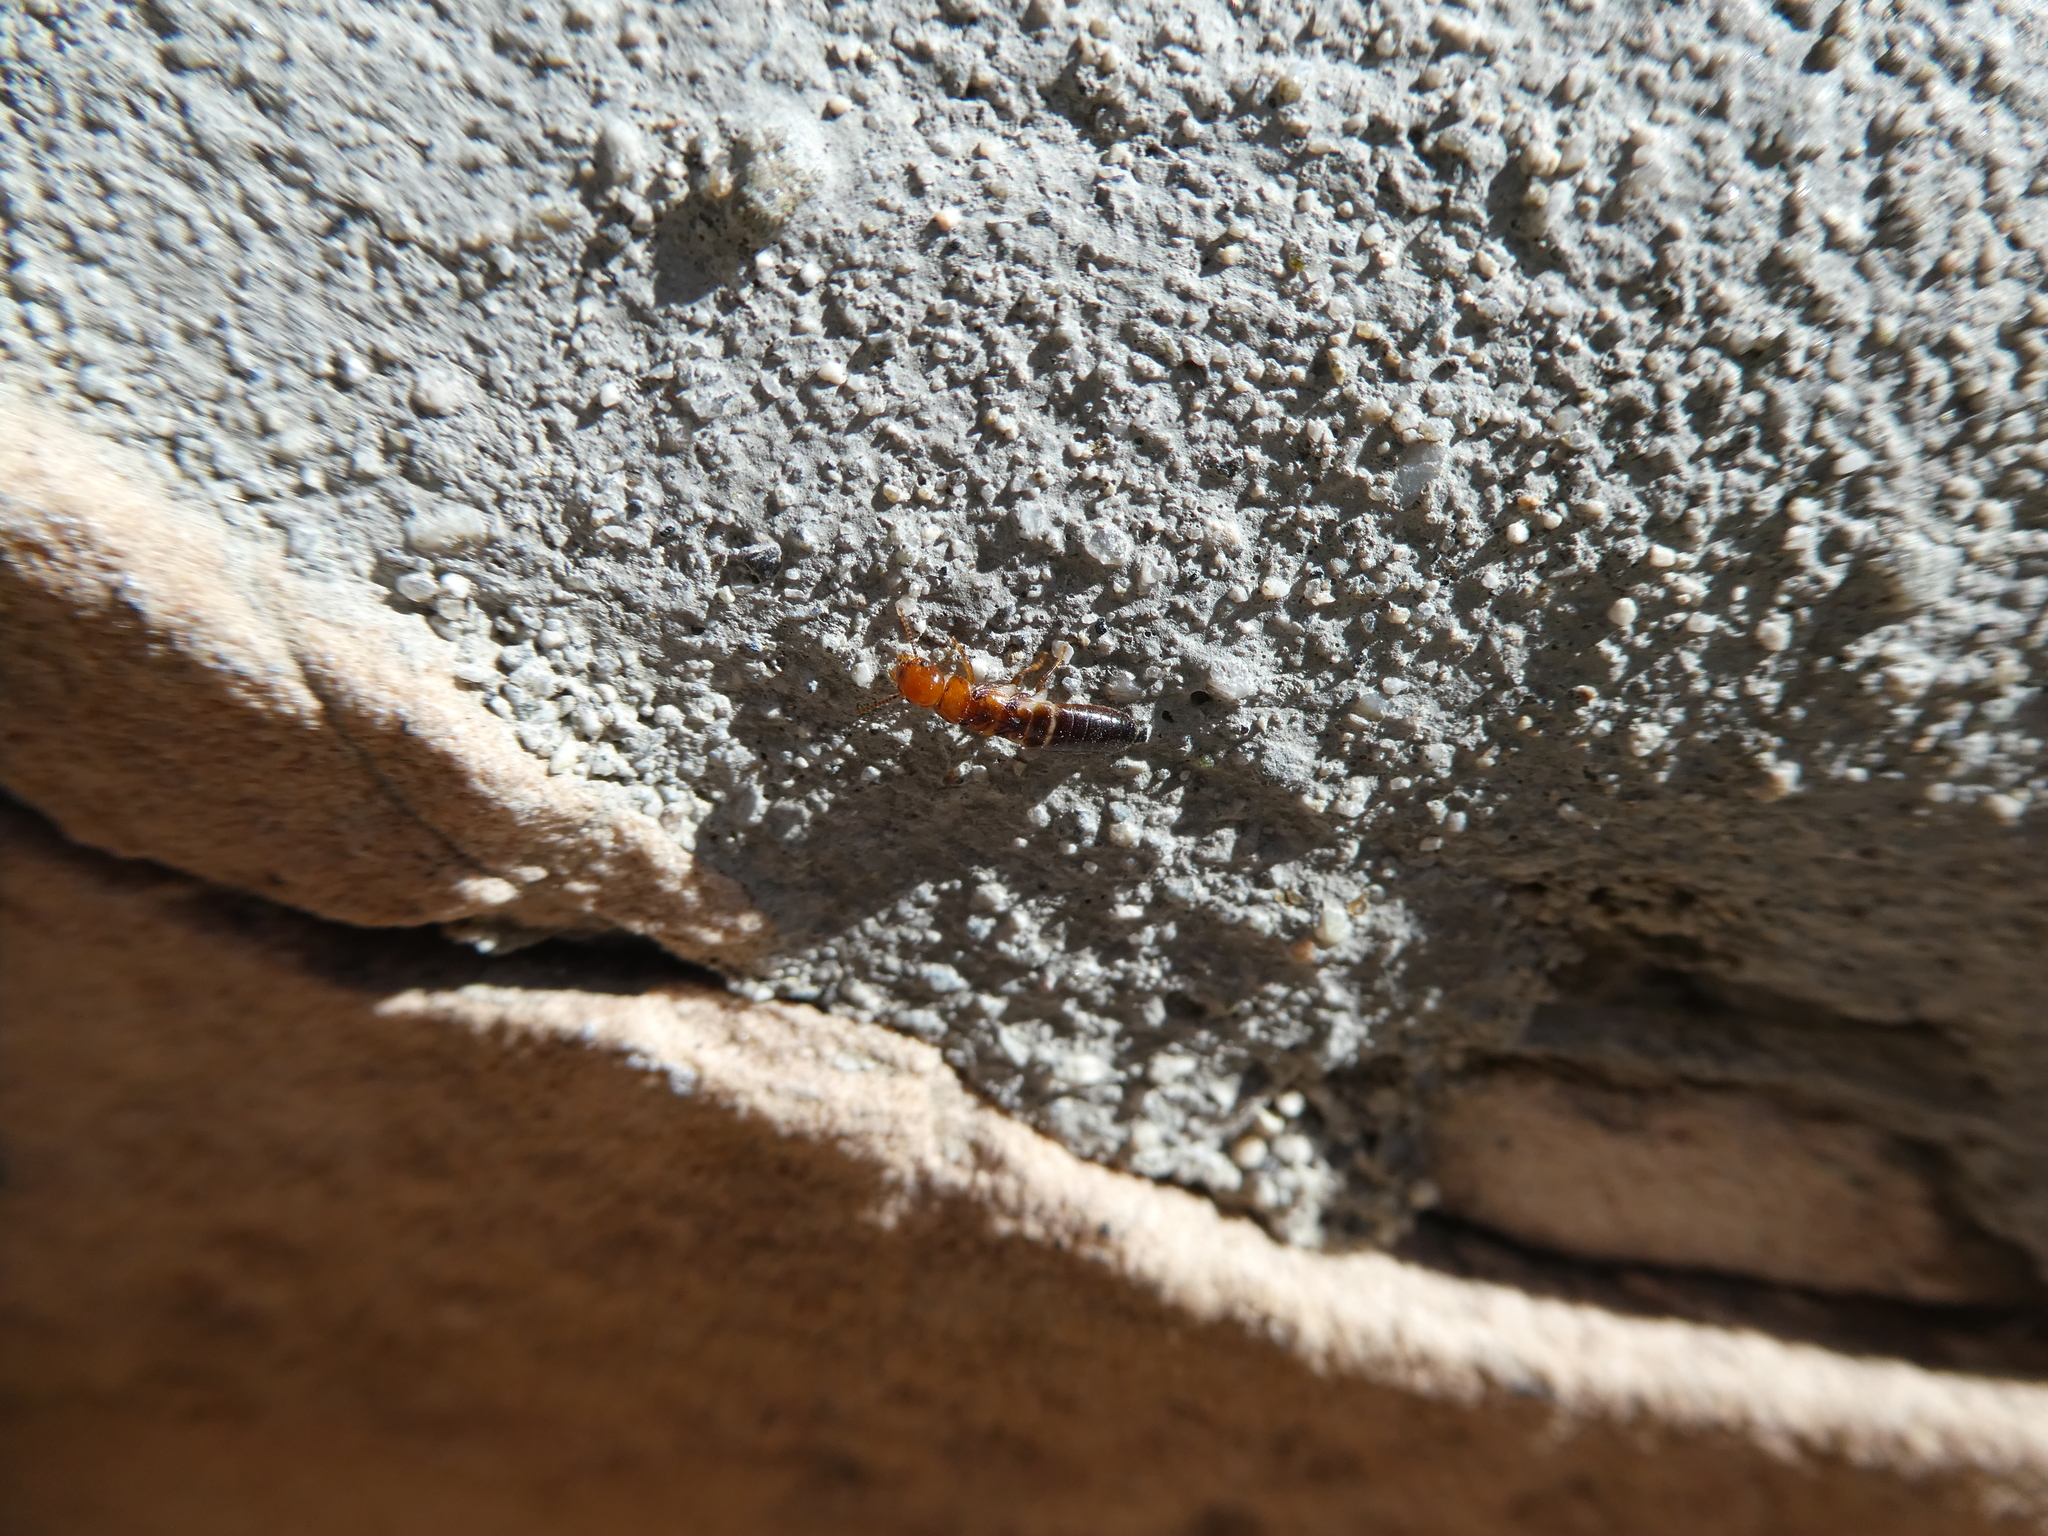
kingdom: Animalia
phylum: Arthropoda
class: Insecta
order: Blattodea
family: Kalotermitidae
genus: Incisitermes
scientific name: Incisitermes minor
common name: Termite
